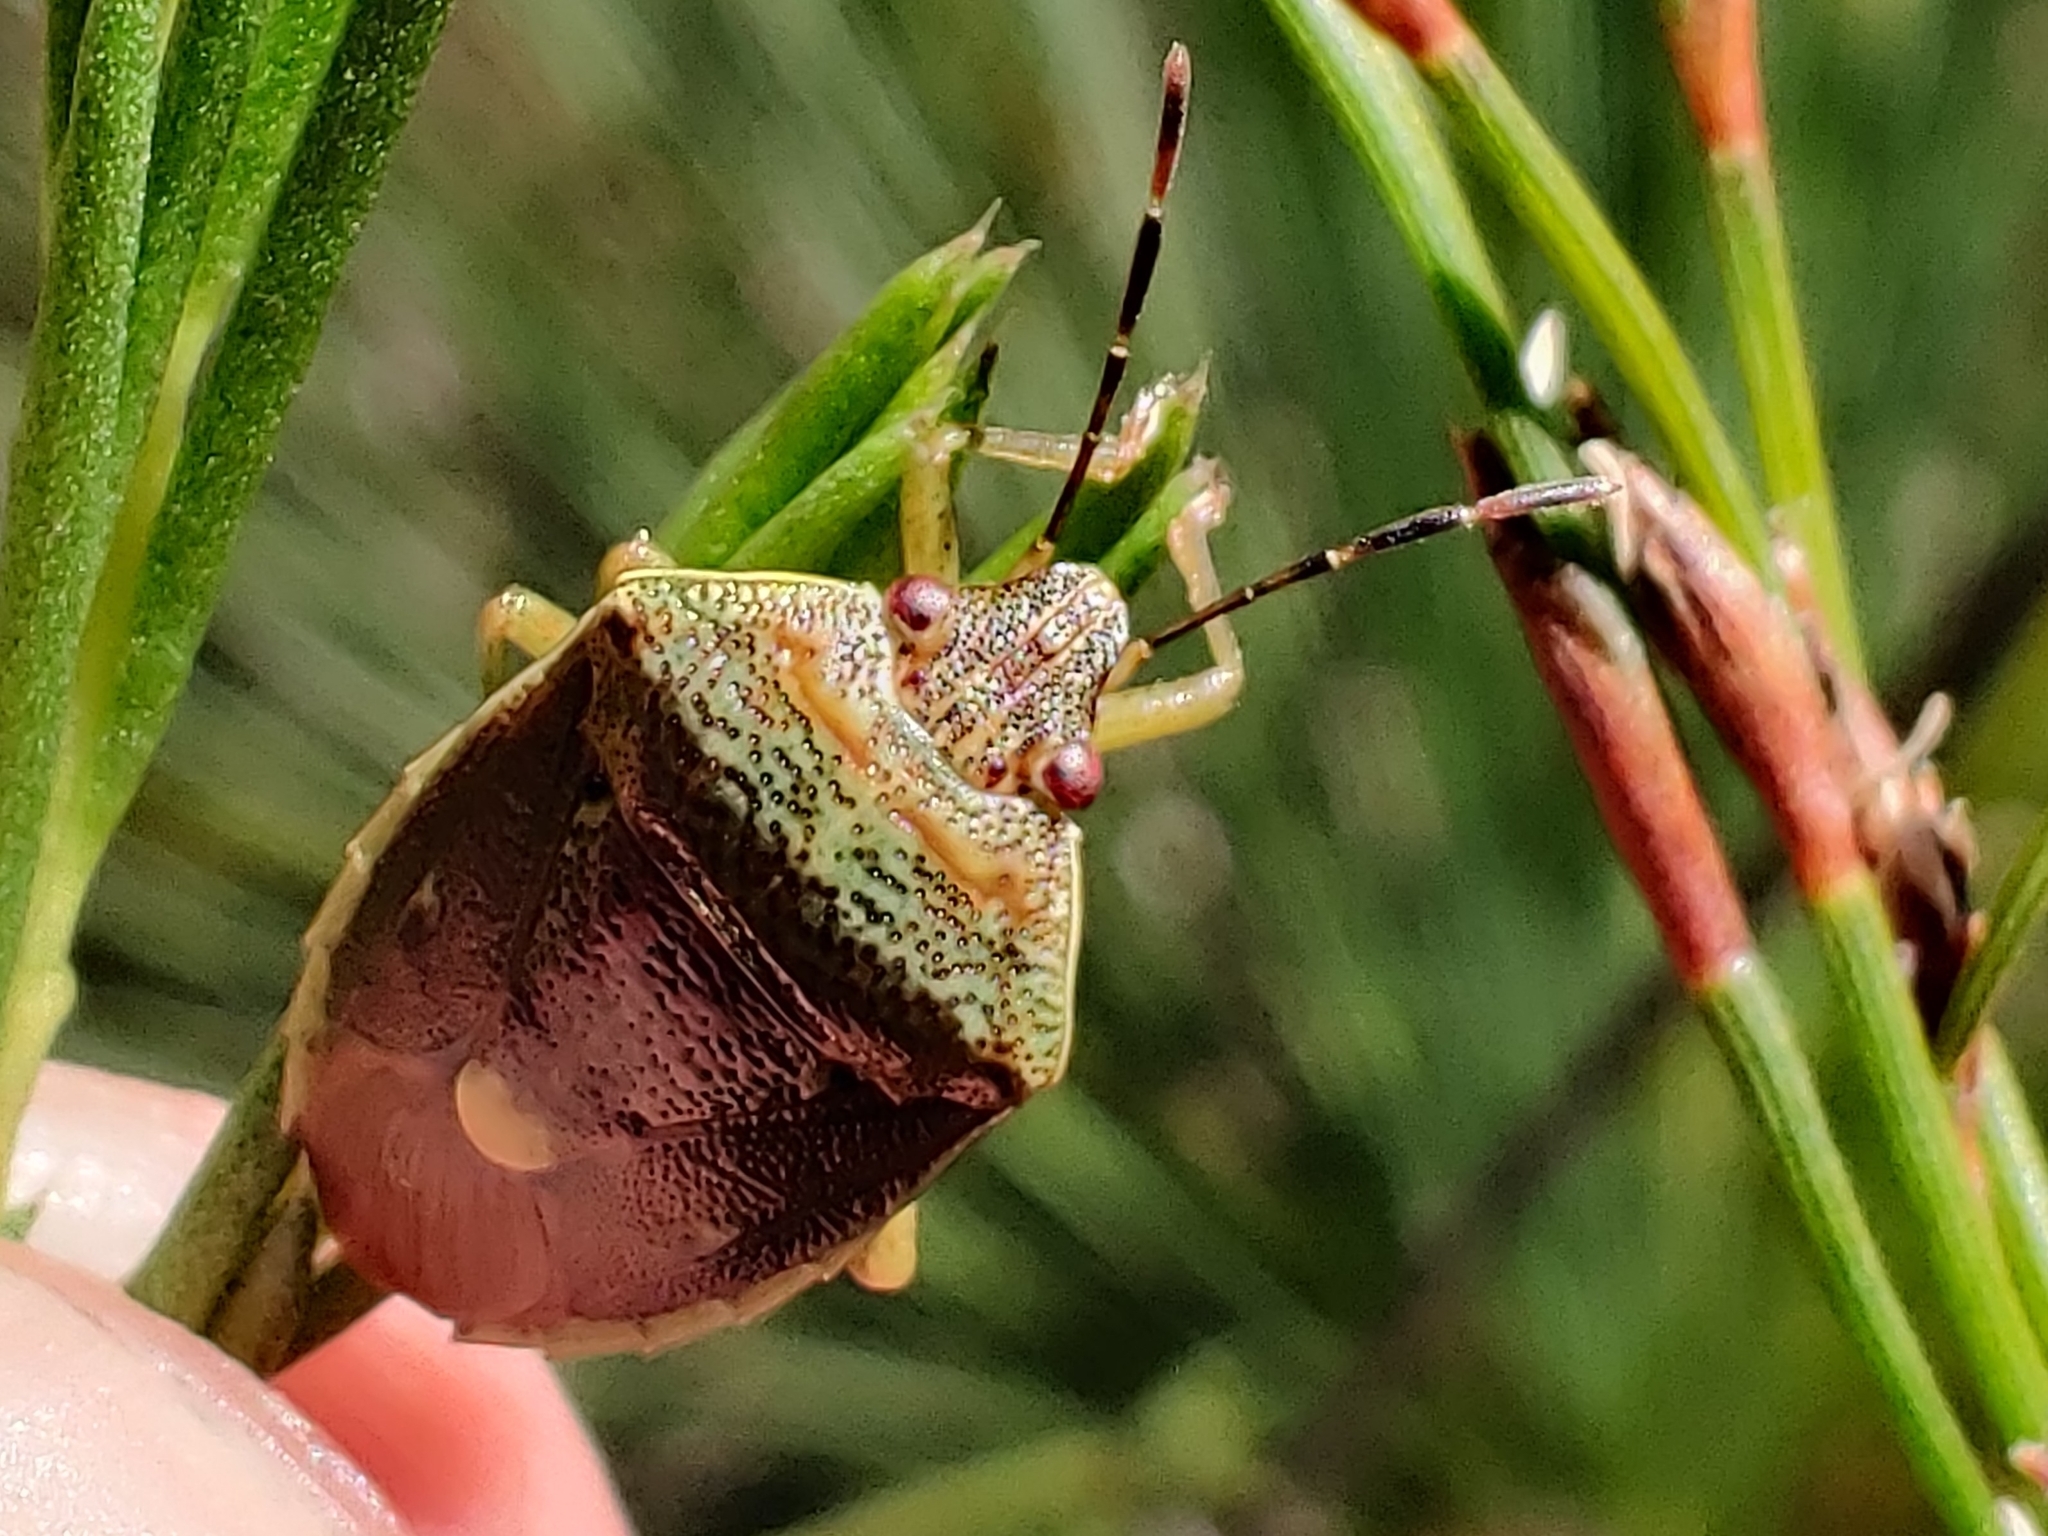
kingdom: Animalia
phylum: Arthropoda
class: Insecta
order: Hemiptera
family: Pentatomidae
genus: Ocirrhoe
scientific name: Ocirrhoe
